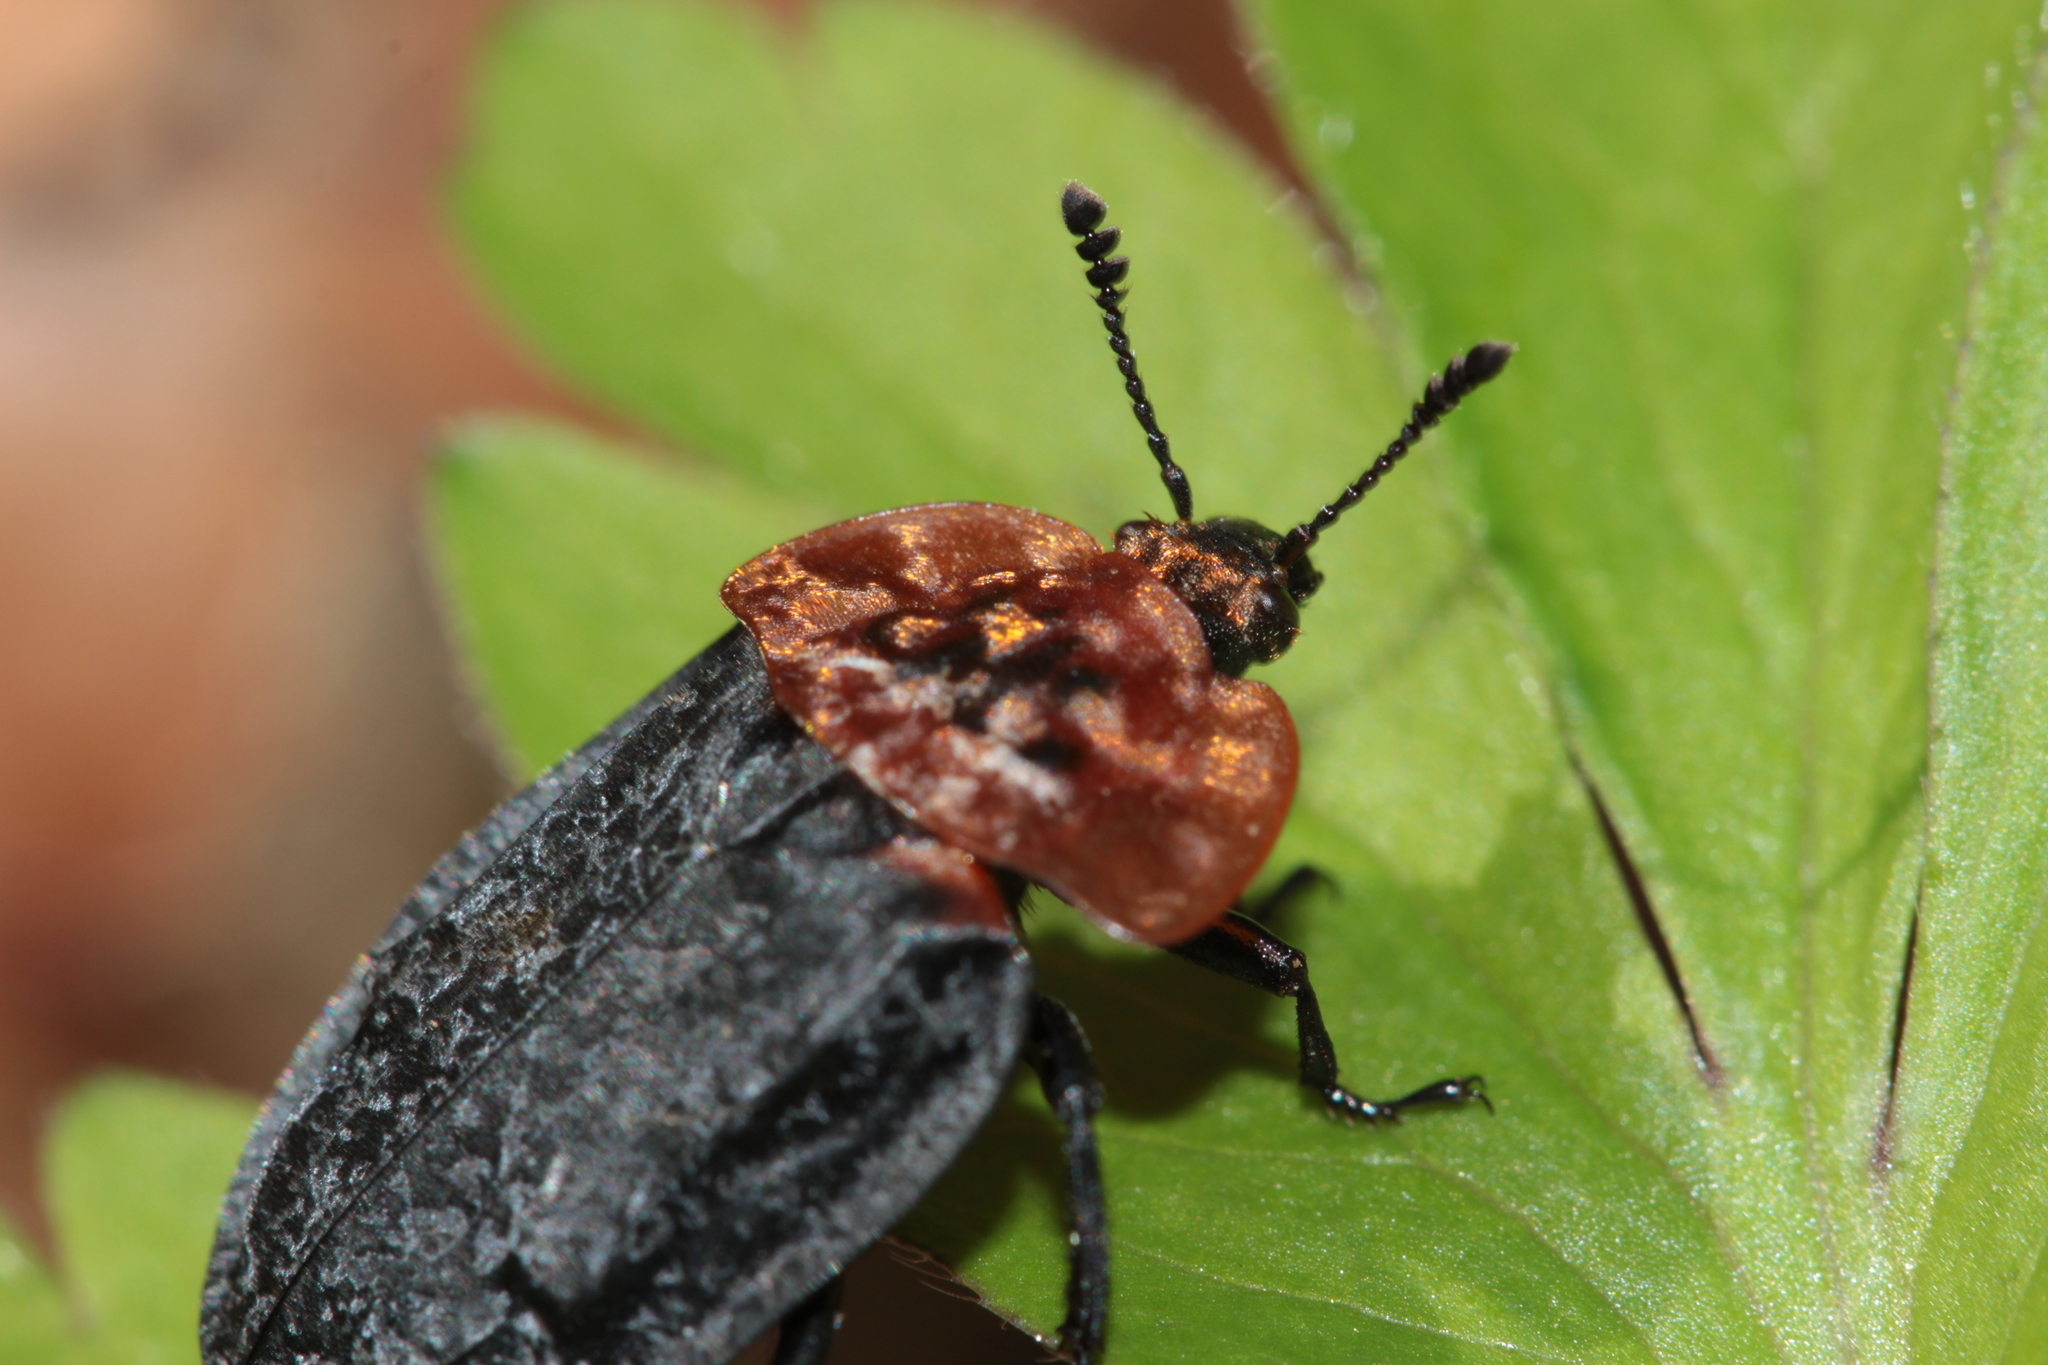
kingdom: Animalia
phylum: Arthropoda
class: Insecta
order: Coleoptera
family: Staphylinidae
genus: Oiceoptoma
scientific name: Oiceoptoma thoracicum
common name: Red-breasted carrion beetle
